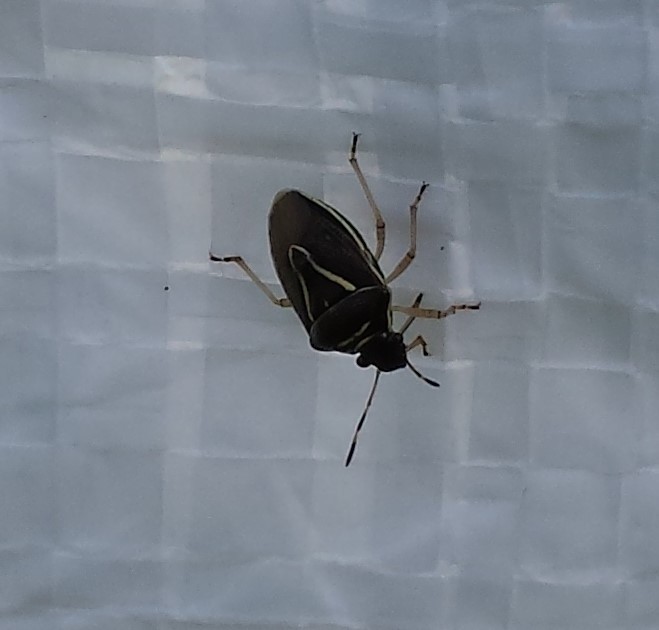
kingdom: Animalia
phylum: Arthropoda
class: Insecta
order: Hemiptera
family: Pentatomidae
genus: Mormidea
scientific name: Mormidea lugens
